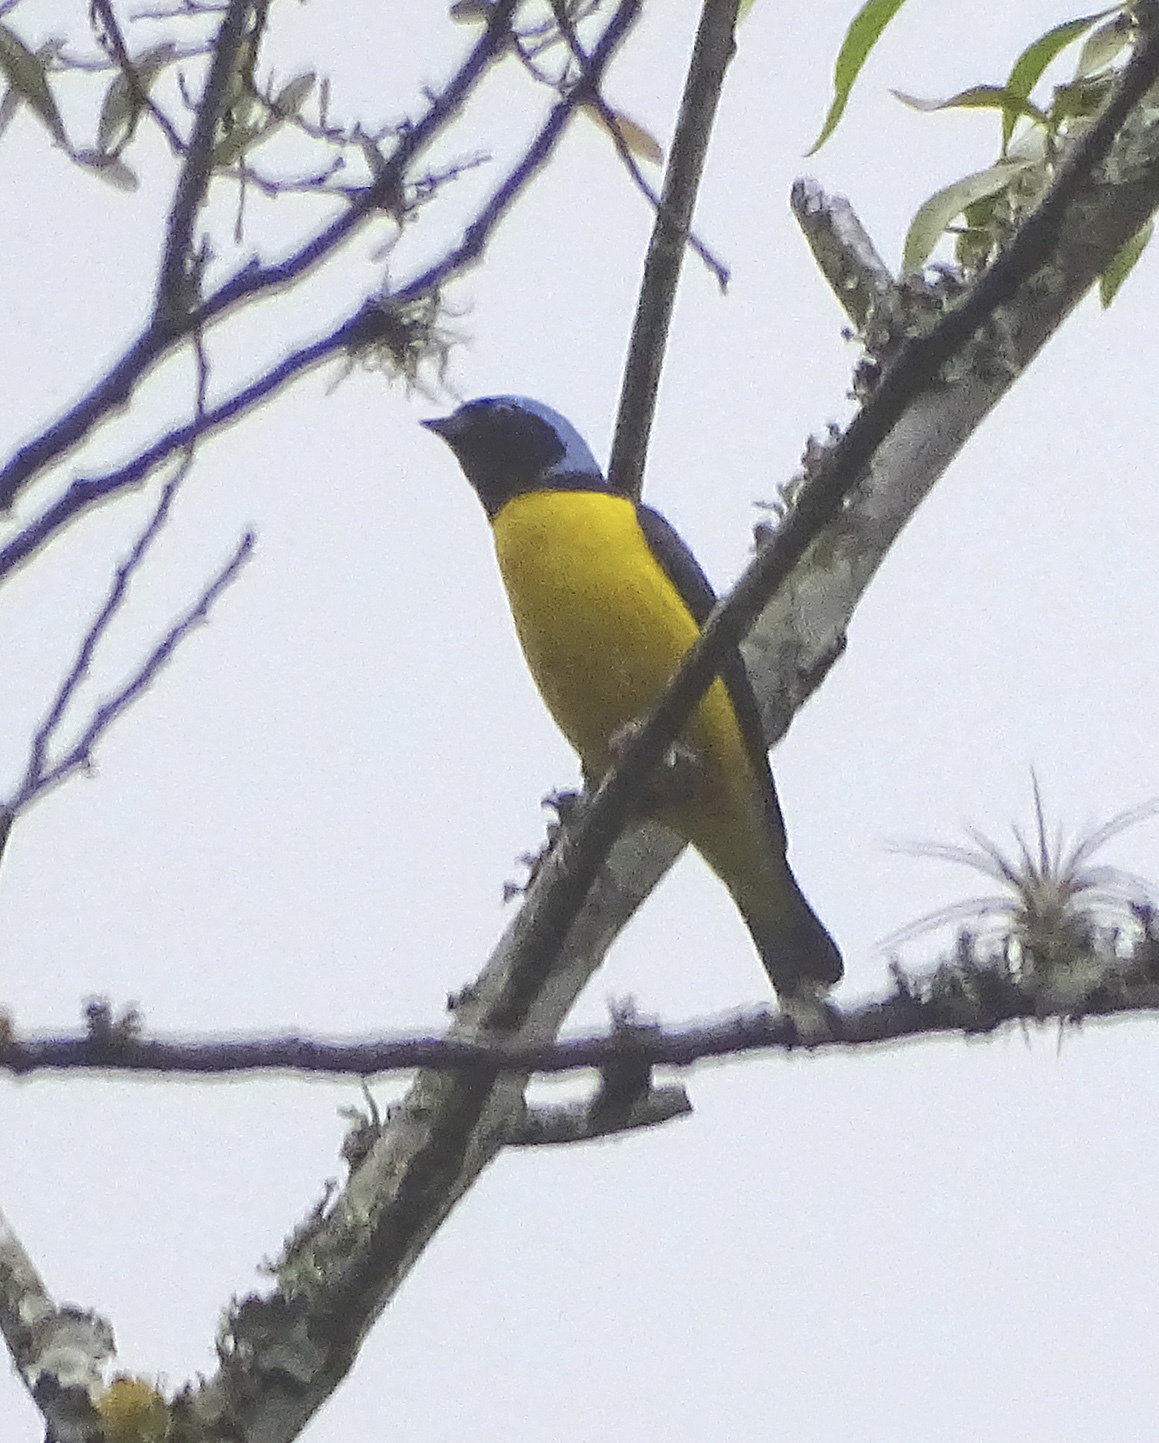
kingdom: Animalia
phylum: Chordata
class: Aves
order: Passeriformes
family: Fringillidae
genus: Euphonia
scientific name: Euphonia cyanocephala
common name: Golden-rumped euphonia
